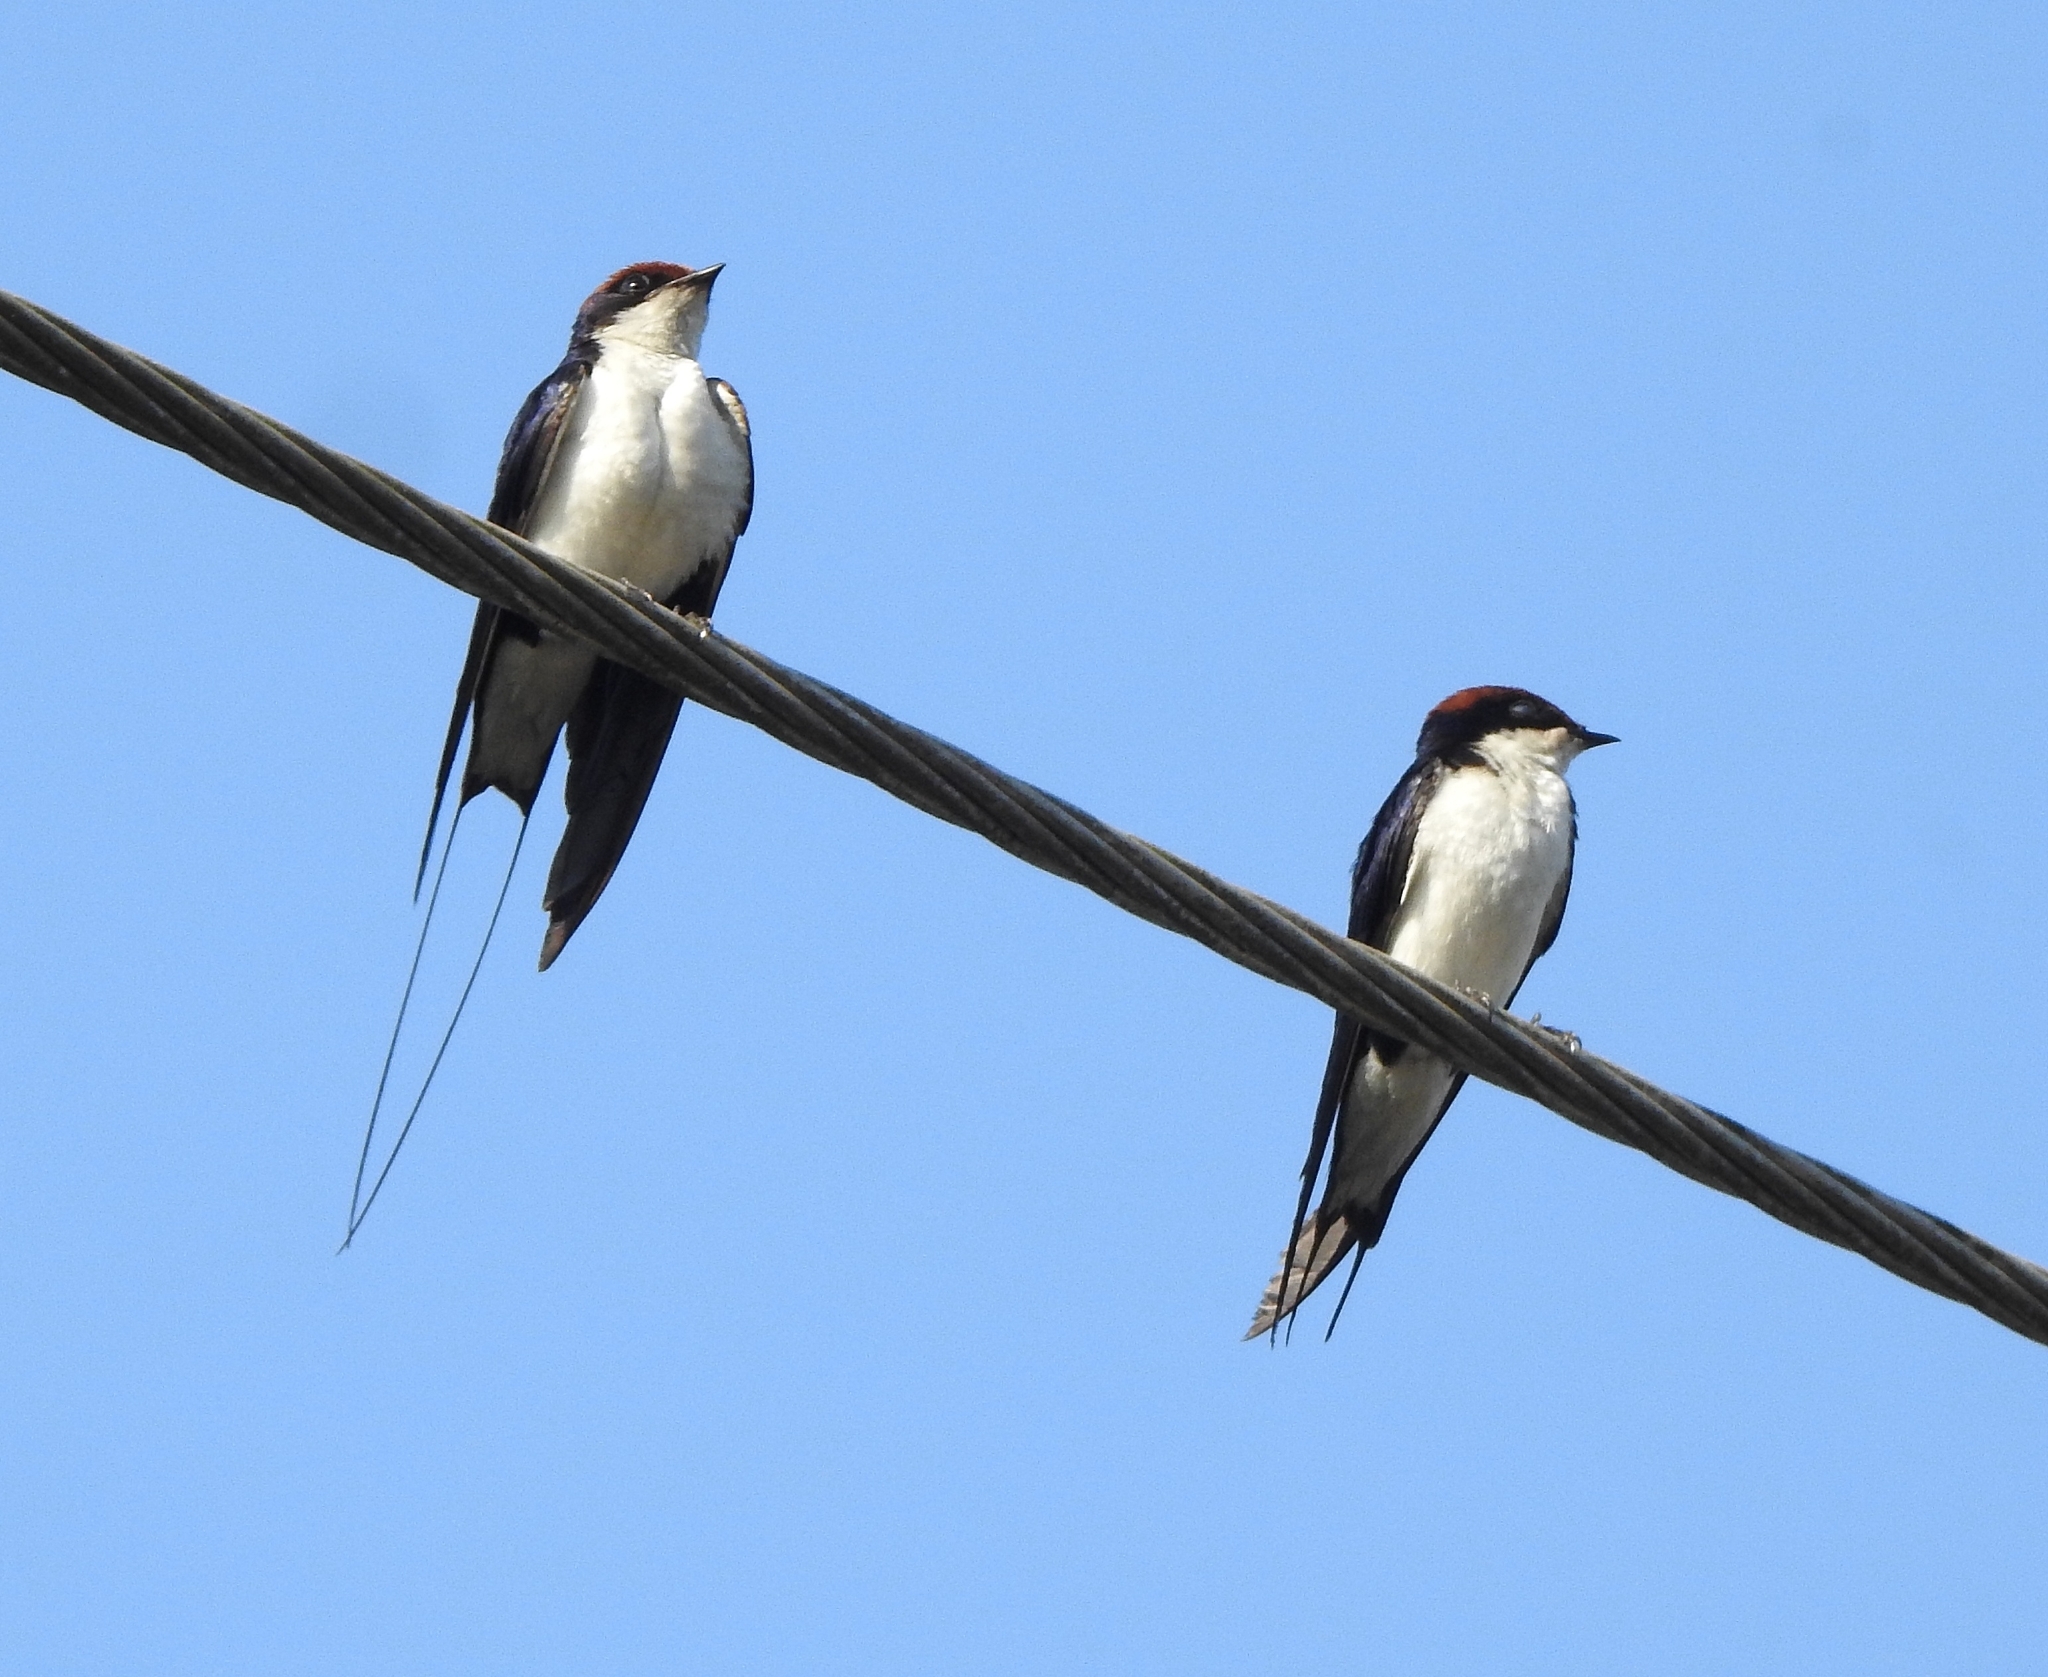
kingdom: Animalia
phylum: Chordata
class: Aves
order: Passeriformes
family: Hirundinidae
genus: Hirundo
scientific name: Hirundo smithii
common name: Wire-tailed swallow
